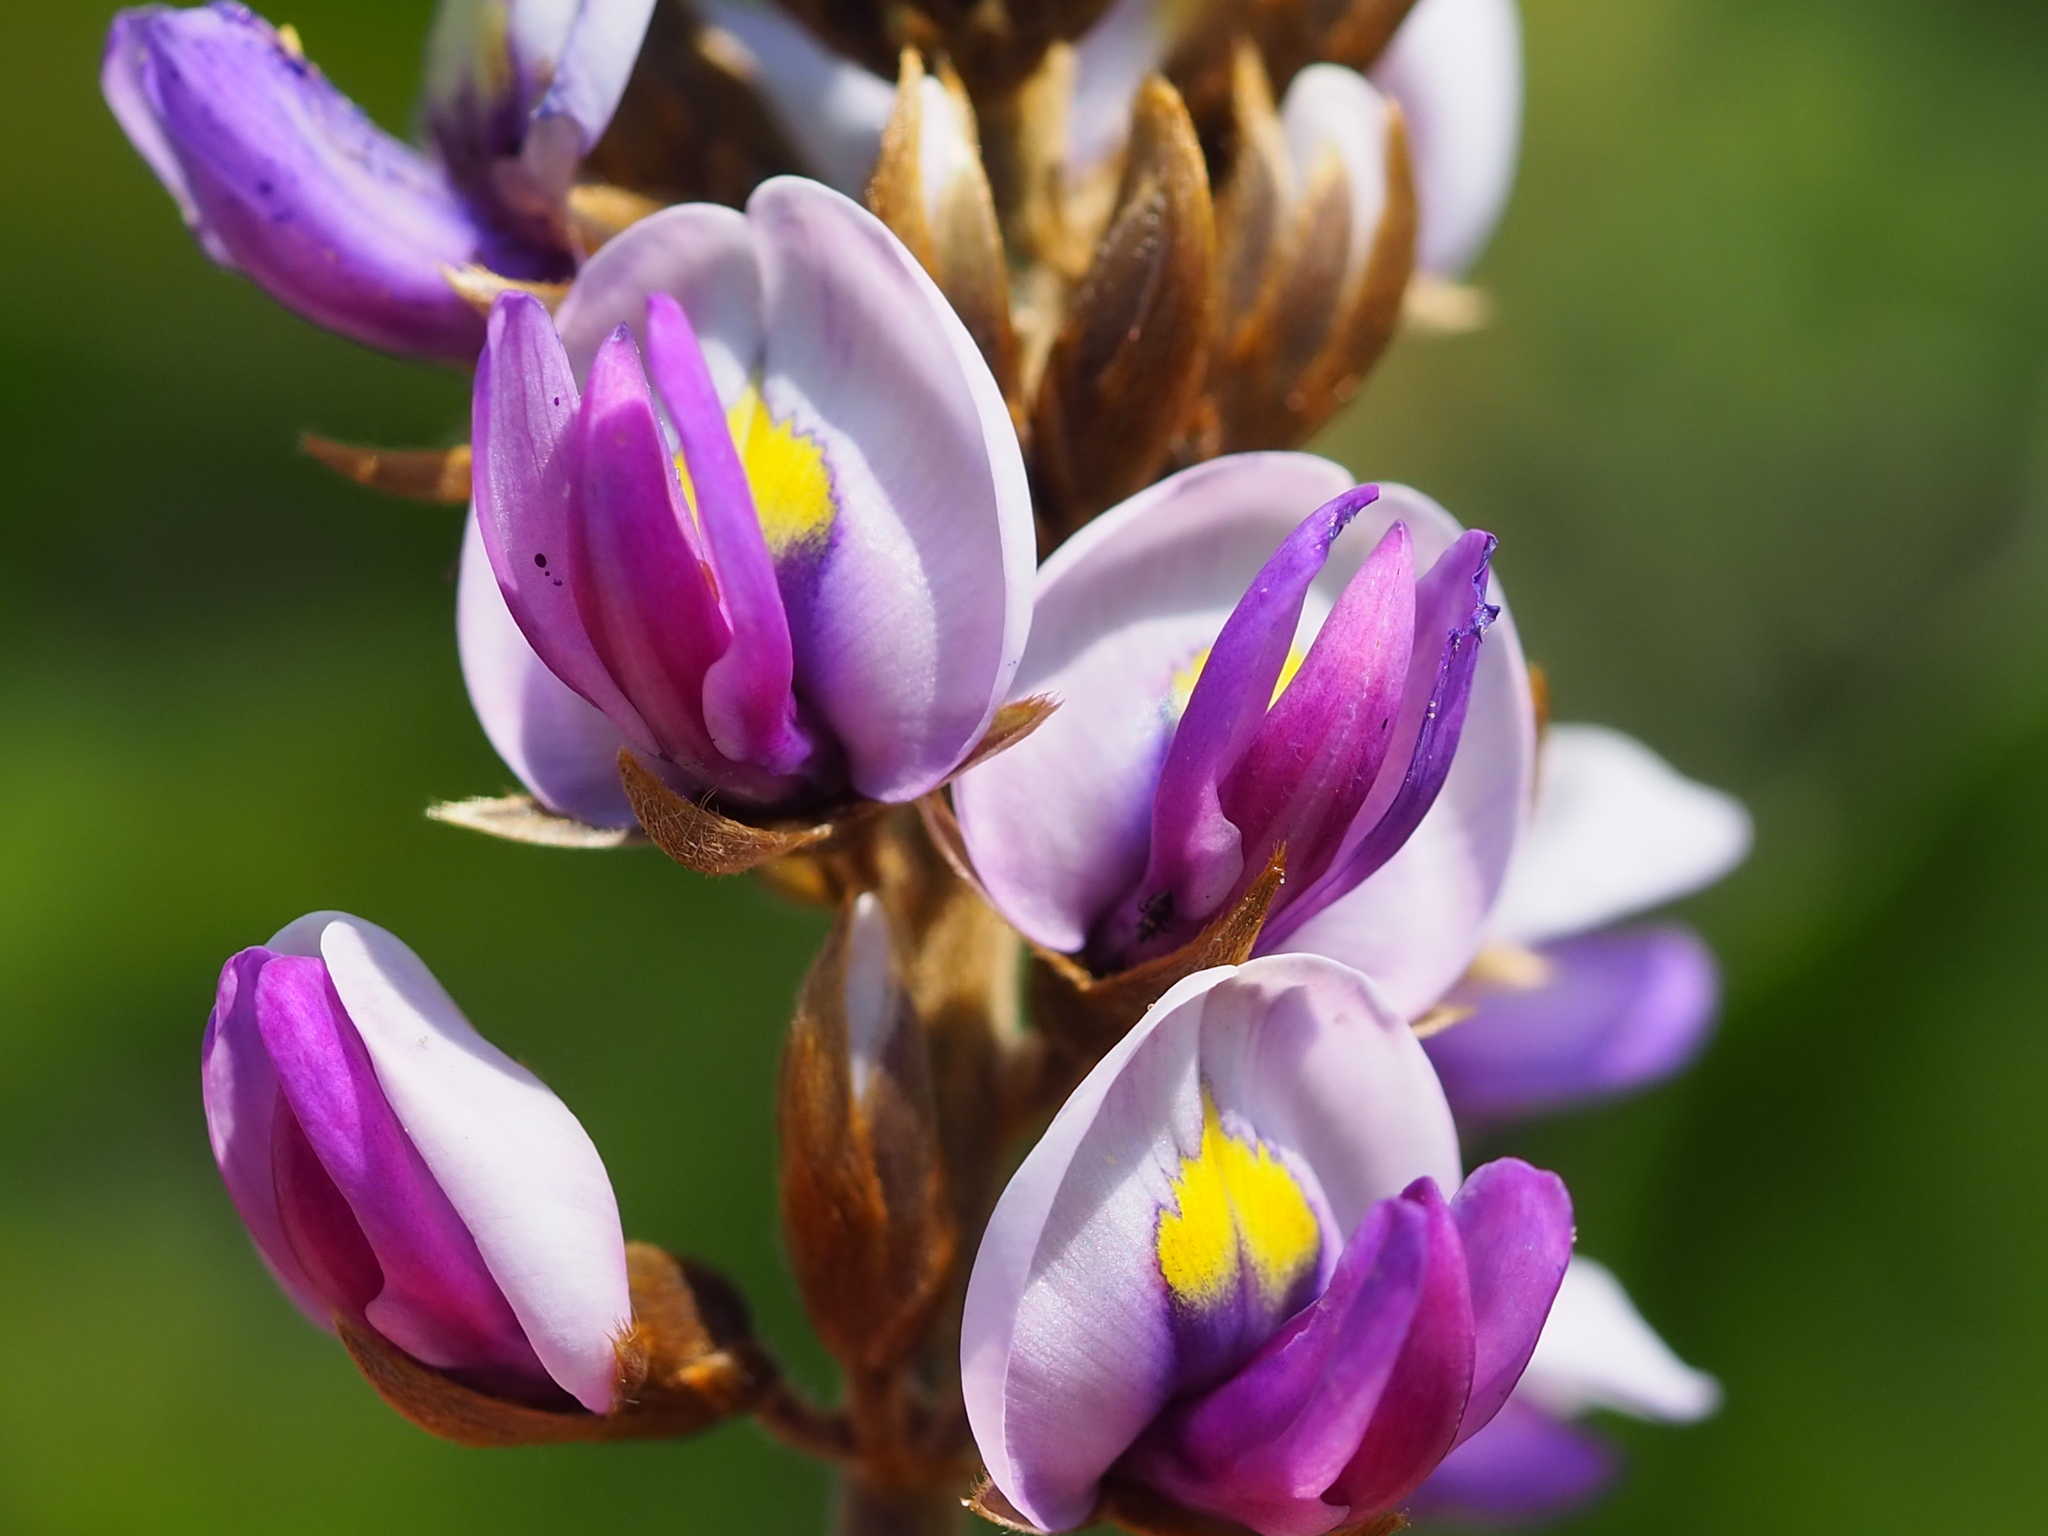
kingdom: Plantae
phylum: Tracheophyta
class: Magnoliopsida
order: Fabales
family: Fabaceae
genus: Pueraria
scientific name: Pueraria montana
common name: Kudzu
